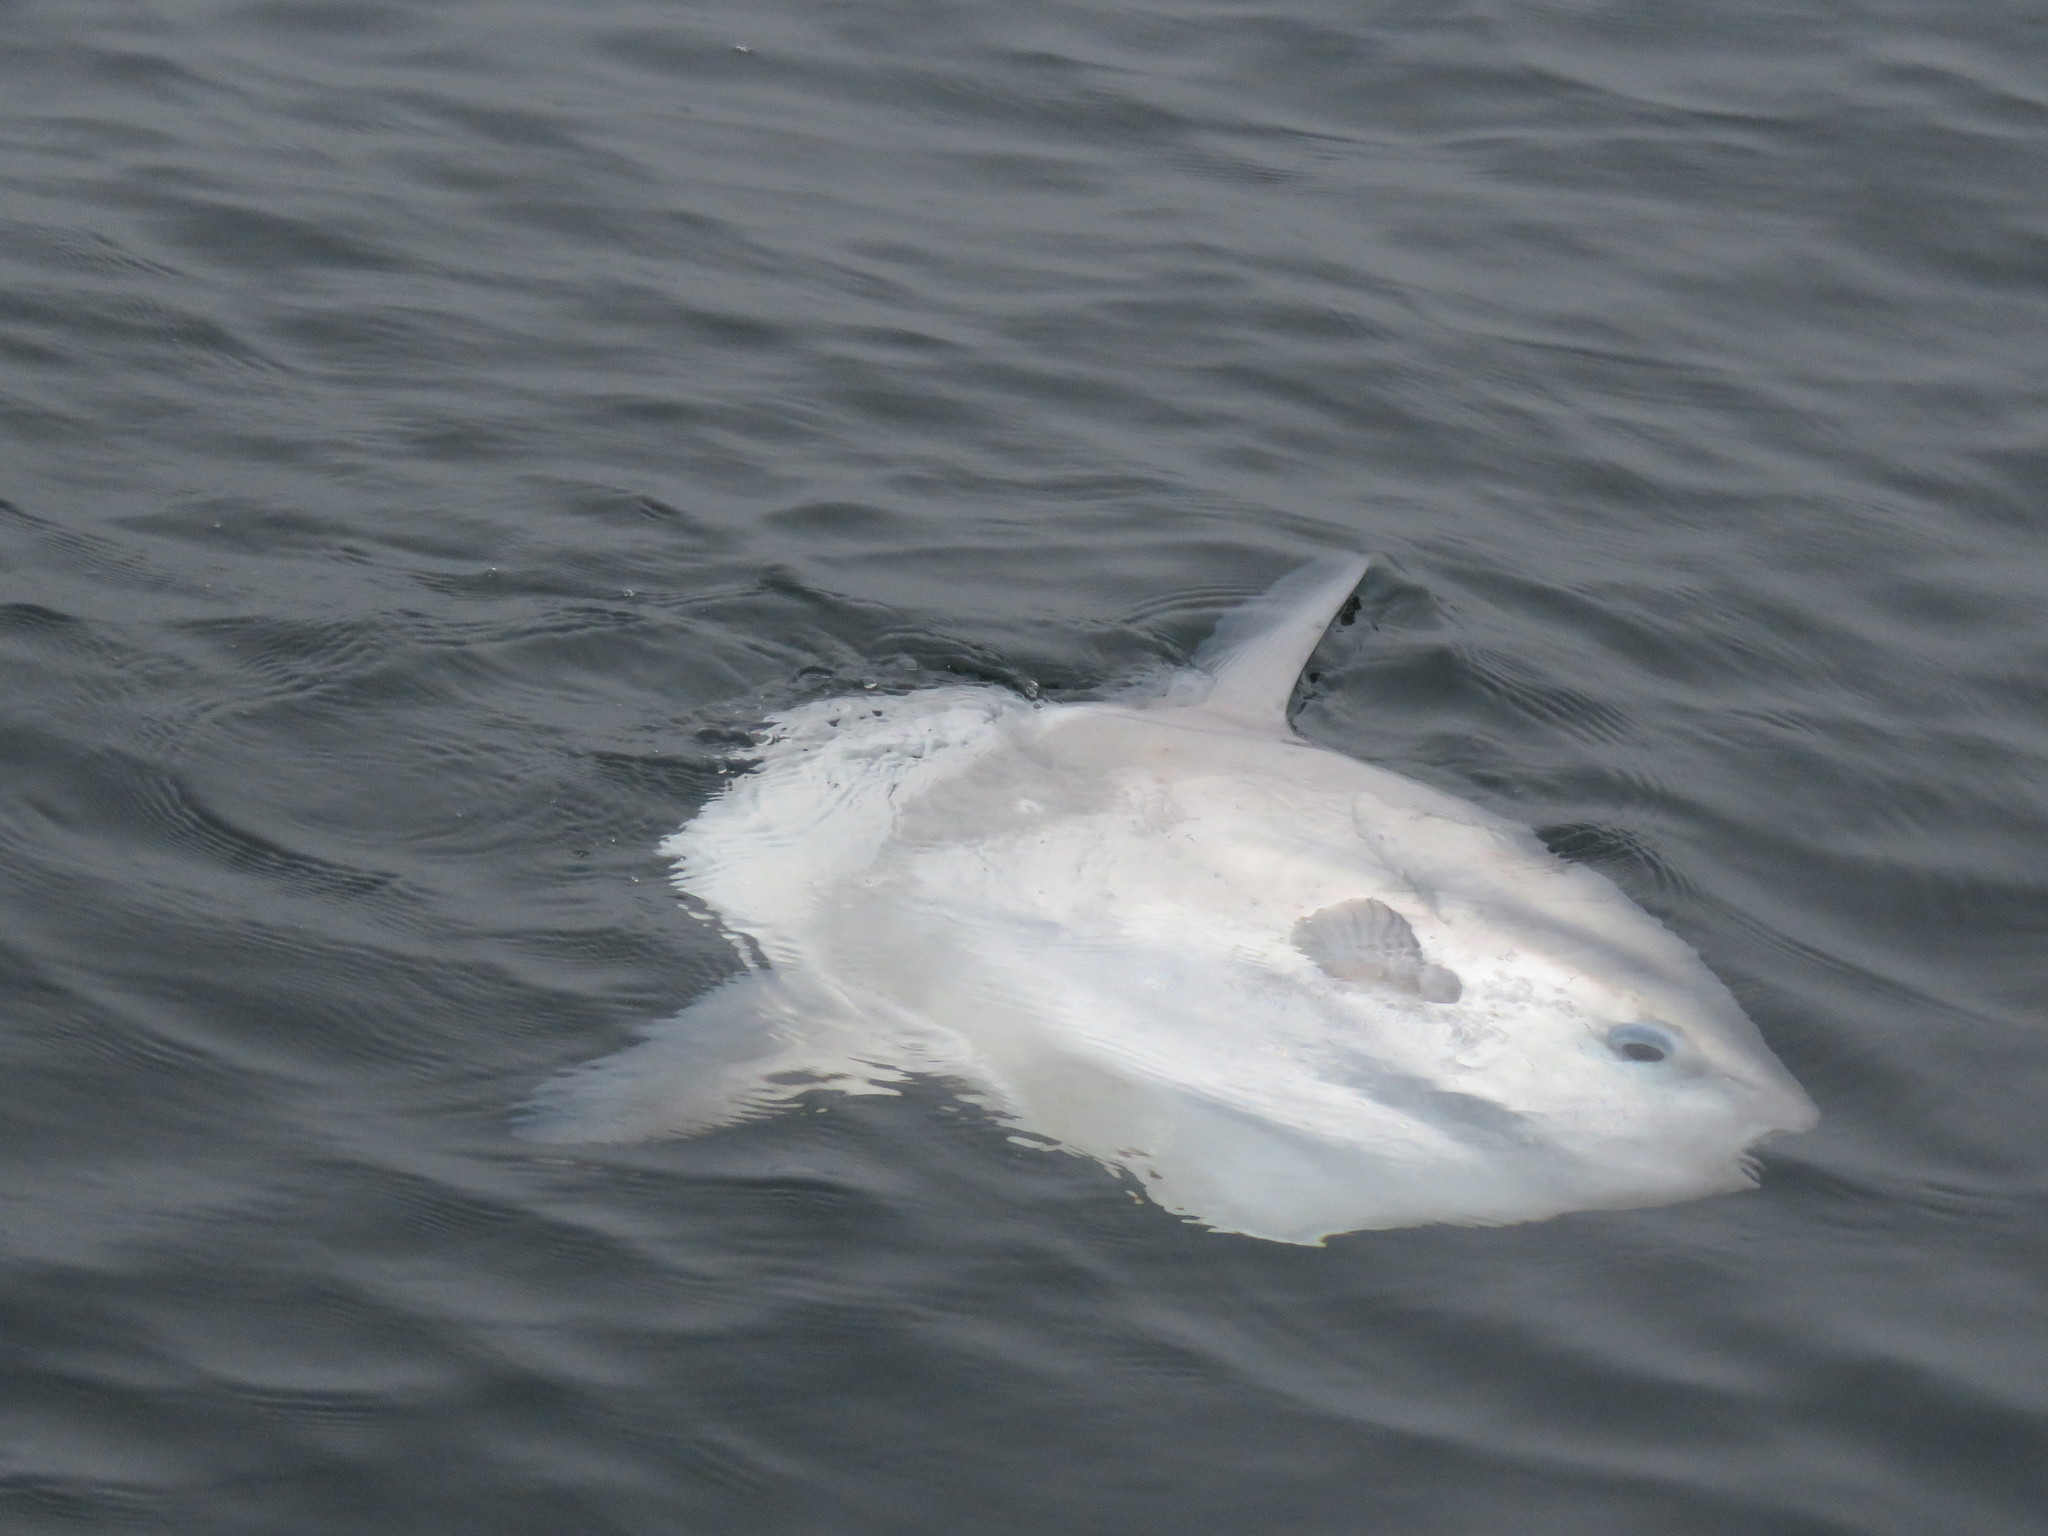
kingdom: Animalia
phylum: Chordata
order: Tetraodontiformes
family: Molidae
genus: Mola
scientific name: Mola mola
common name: Ocean sunfish
